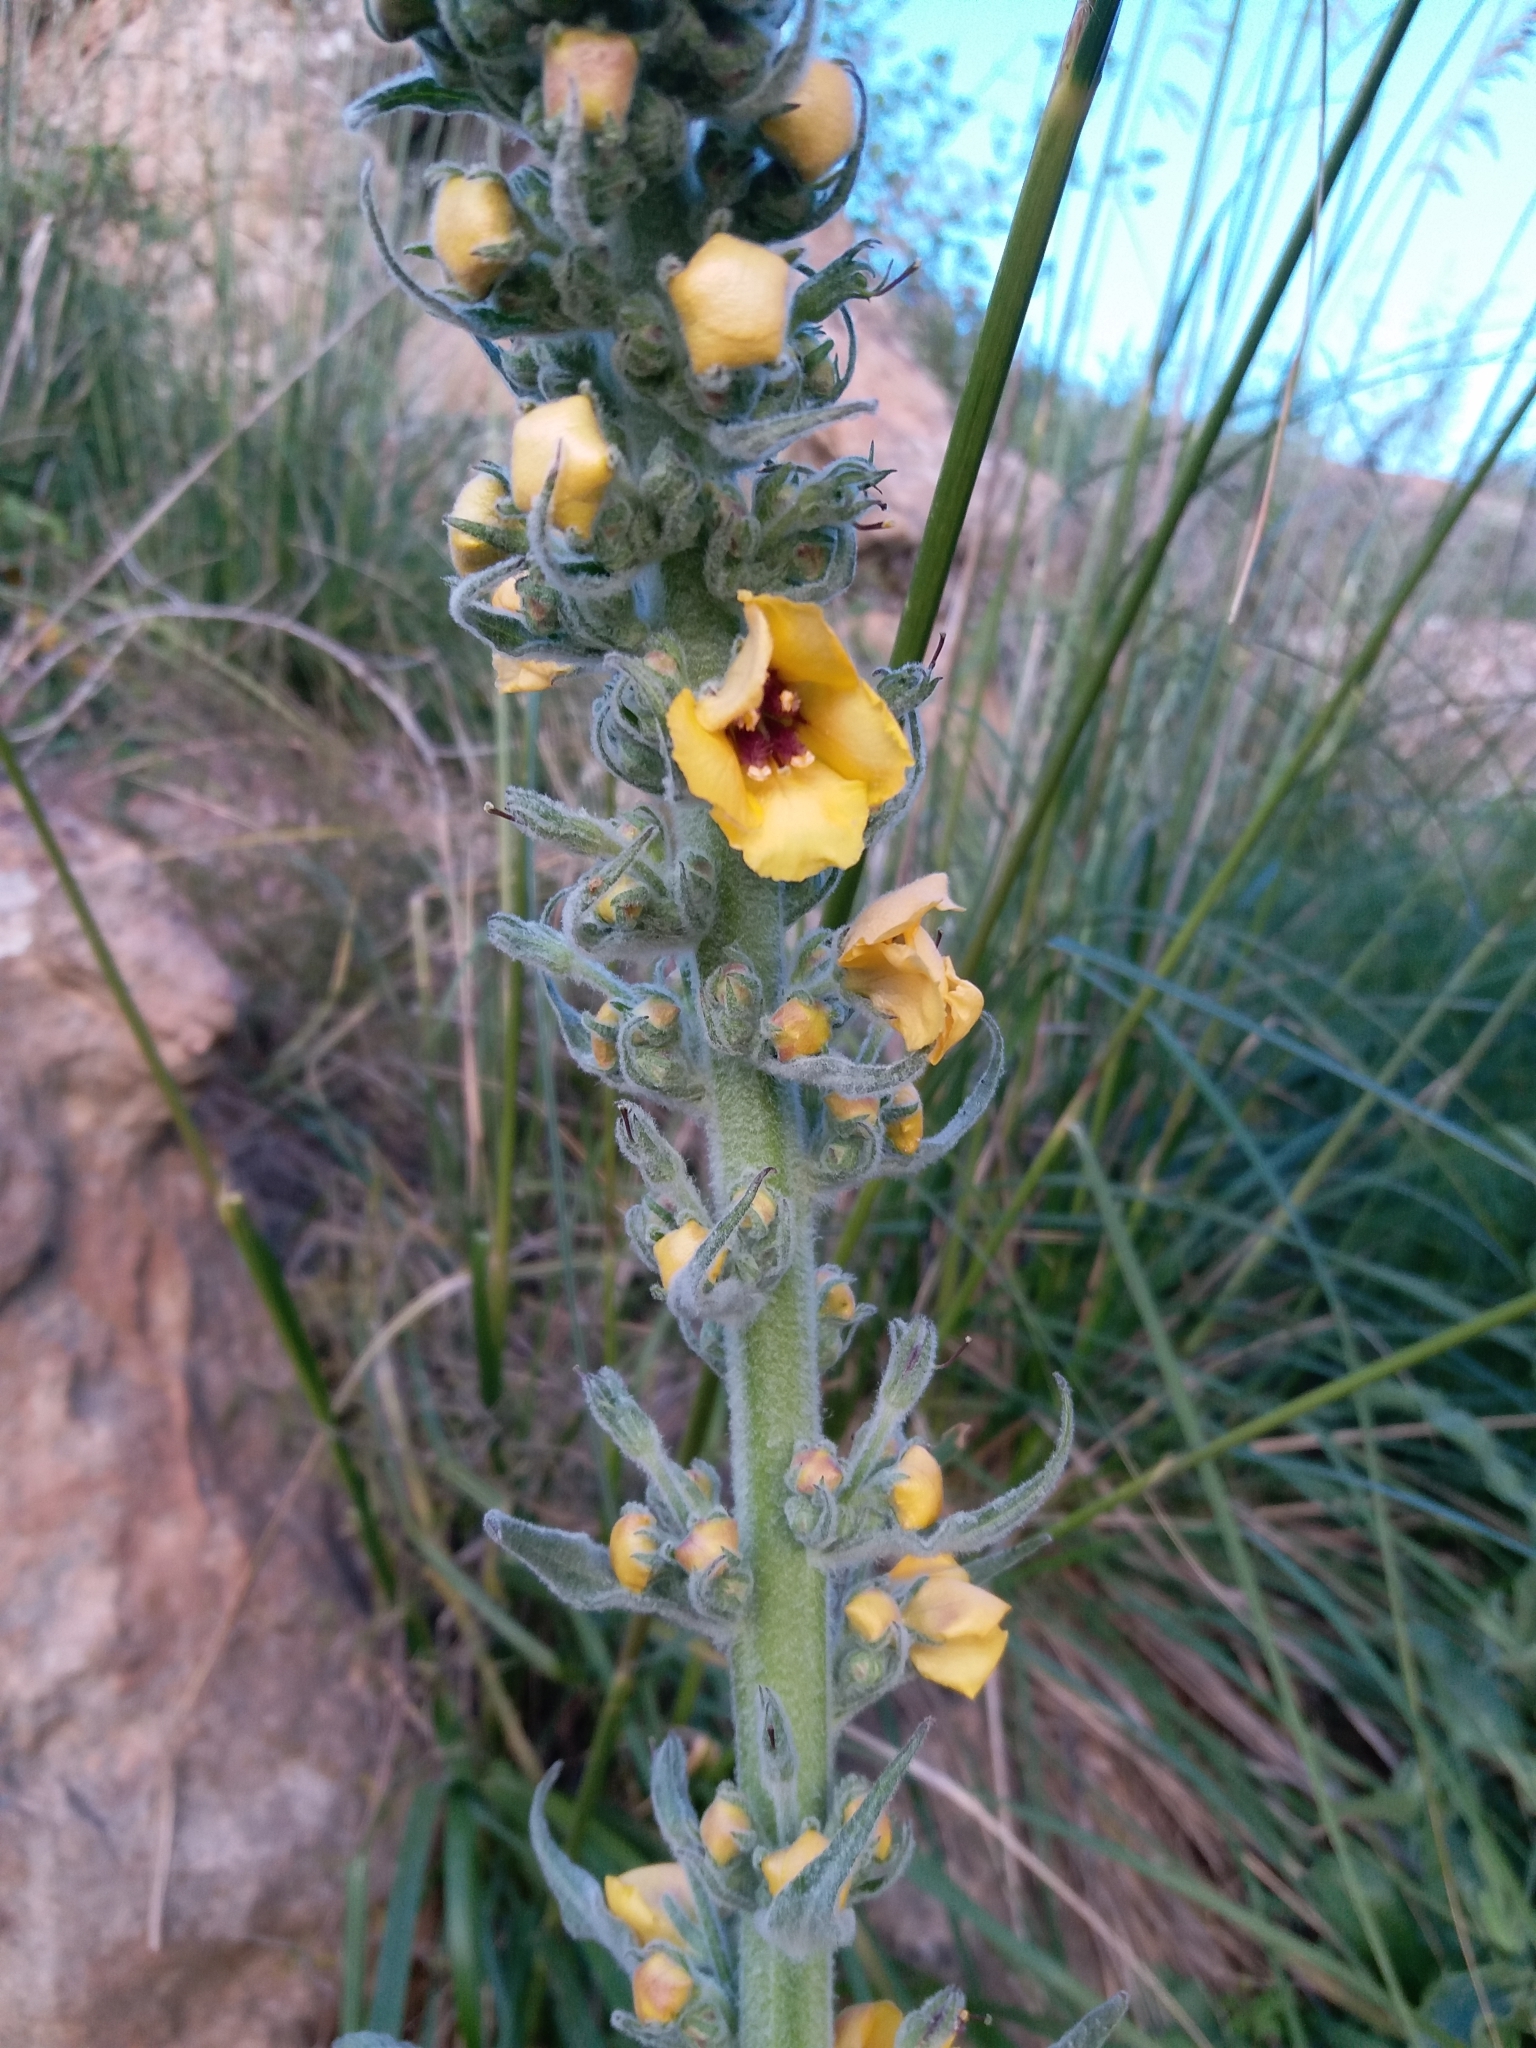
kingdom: Plantae
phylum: Tracheophyta
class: Magnoliopsida
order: Lamiales
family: Scrophulariaceae
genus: Verbascum
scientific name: Verbascum rotundifolium
